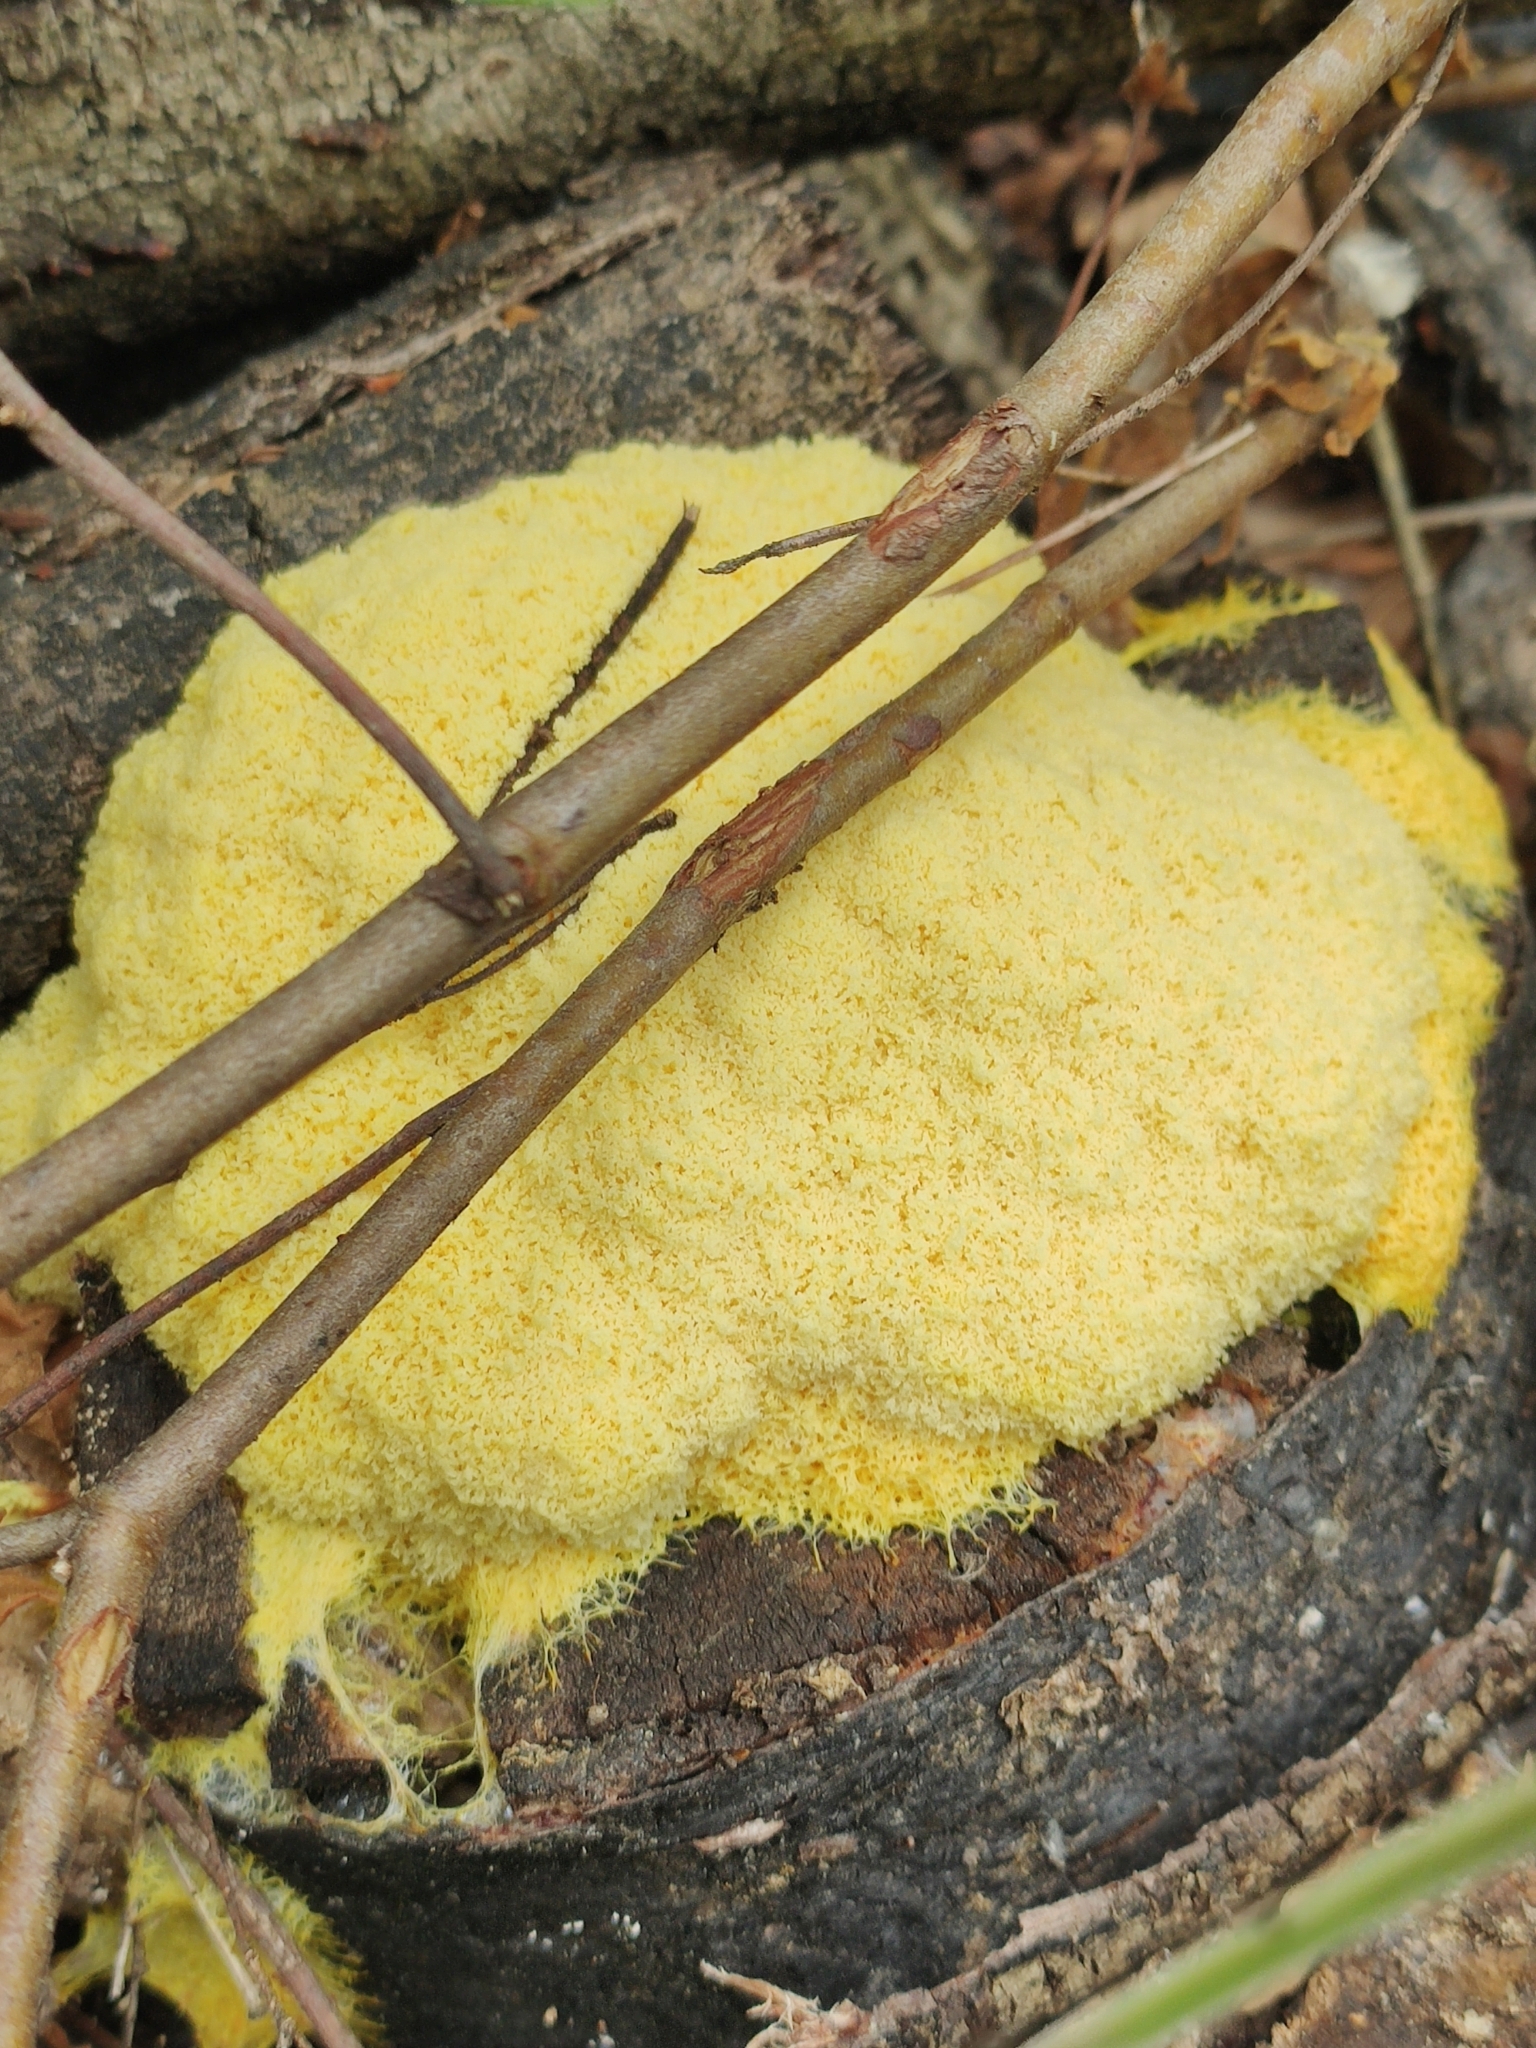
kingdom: Protozoa
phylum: Mycetozoa
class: Myxomycetes
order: Physarales
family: Physaraceae
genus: Fuligo
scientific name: Fuligo septica
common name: Dog vomit slime mold
